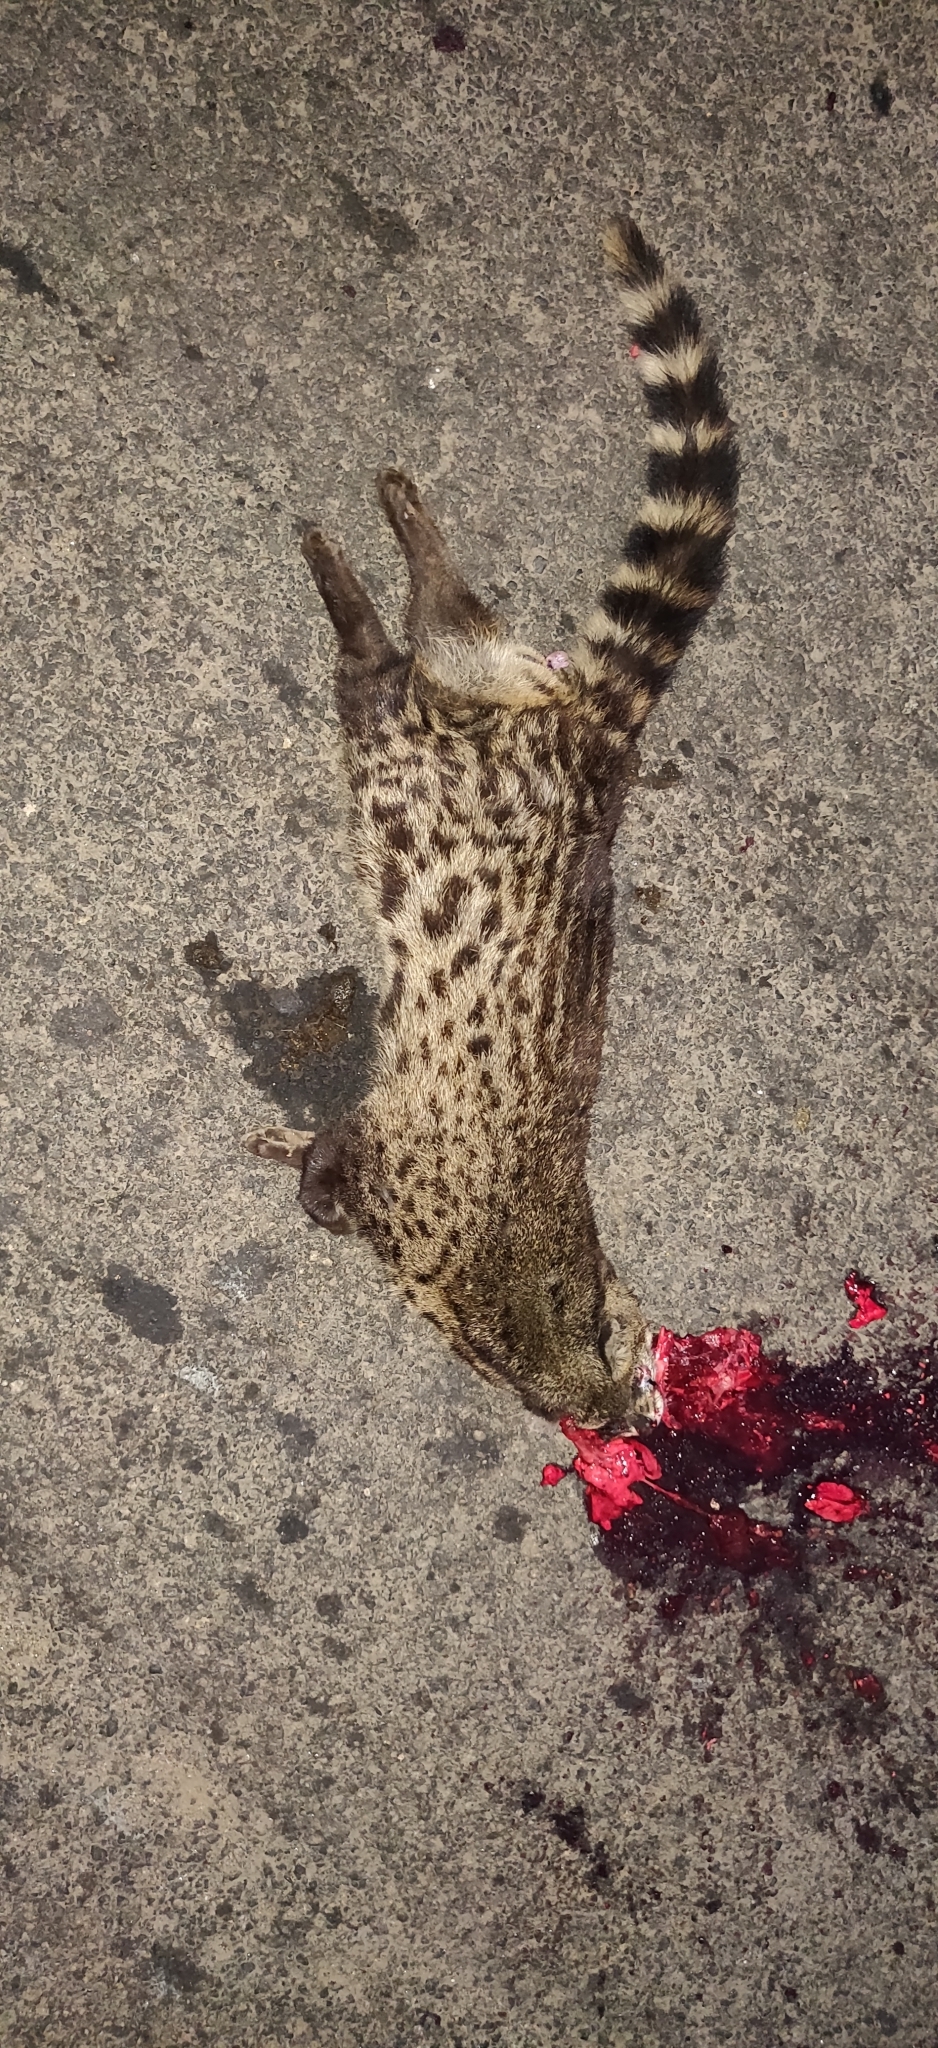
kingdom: Animalia
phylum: Chordata
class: Mammalia
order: Carnivora
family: Viverridae
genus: Viverricula
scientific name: Viverricula indica
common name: Small indian civet
